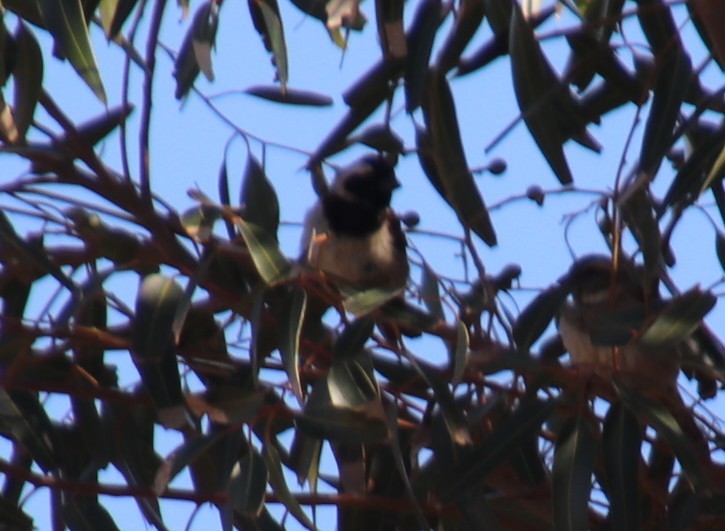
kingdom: Animalia
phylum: Chordata
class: Aves
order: Passeriformes
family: Passeridae
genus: Passer
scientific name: Passer melanurus
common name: Cape sparrow
